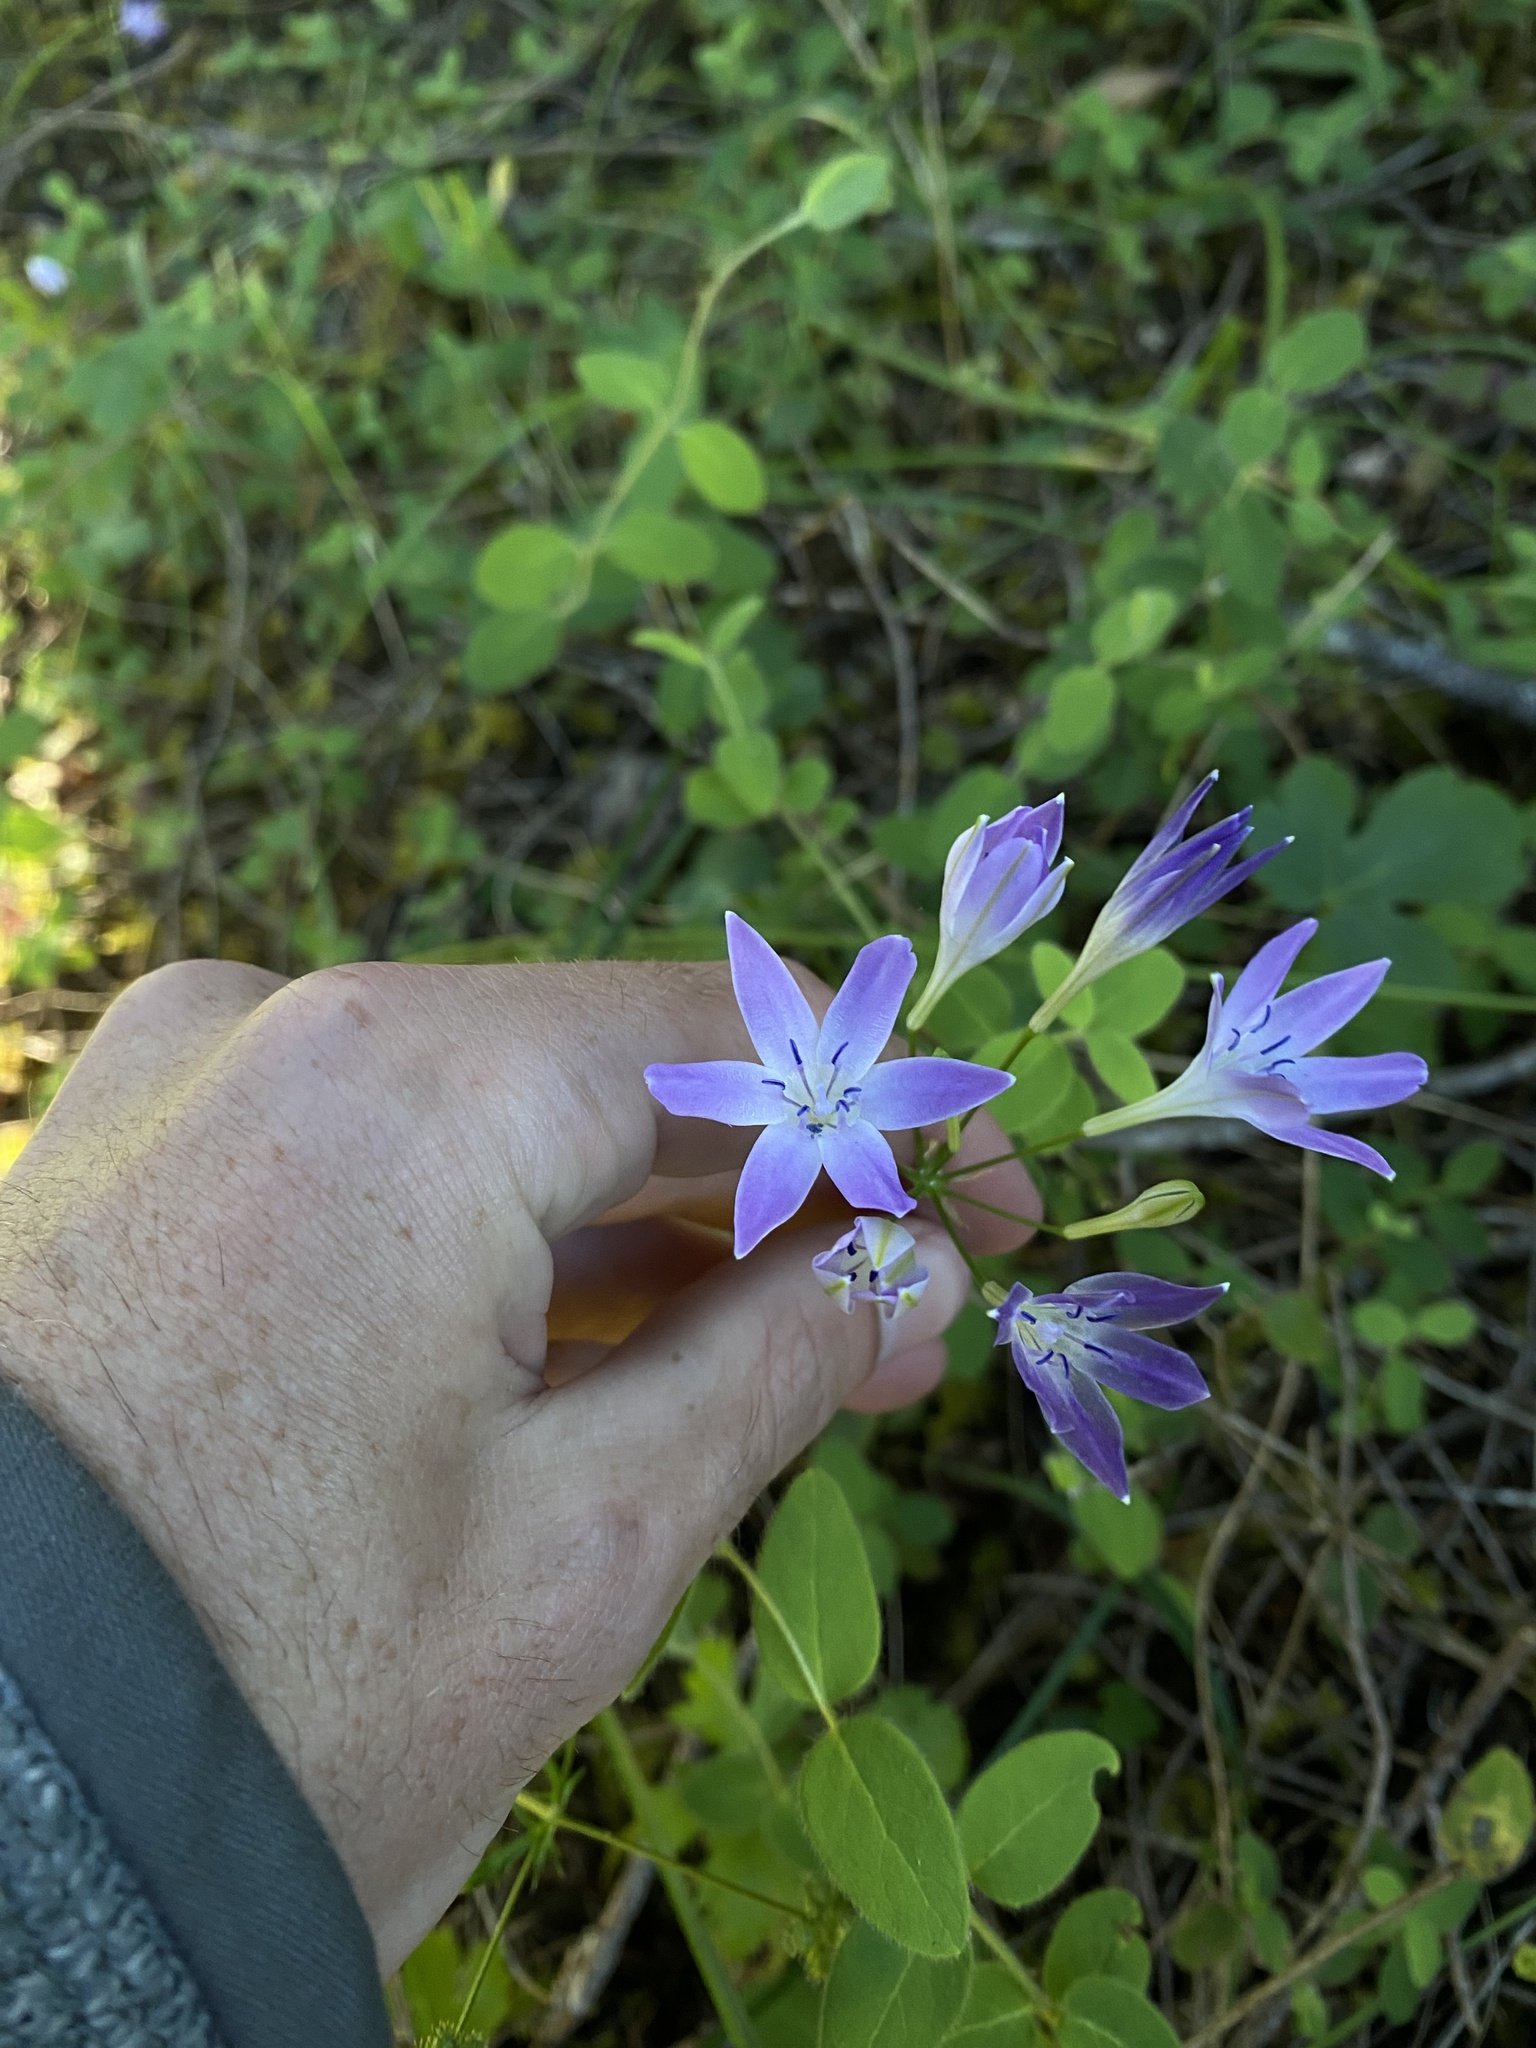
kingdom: Plantae
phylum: Tracheophyta
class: Liliopsida
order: Asparagales
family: Asparagaceae
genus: Triteleia
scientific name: Triteleia bridgesii
